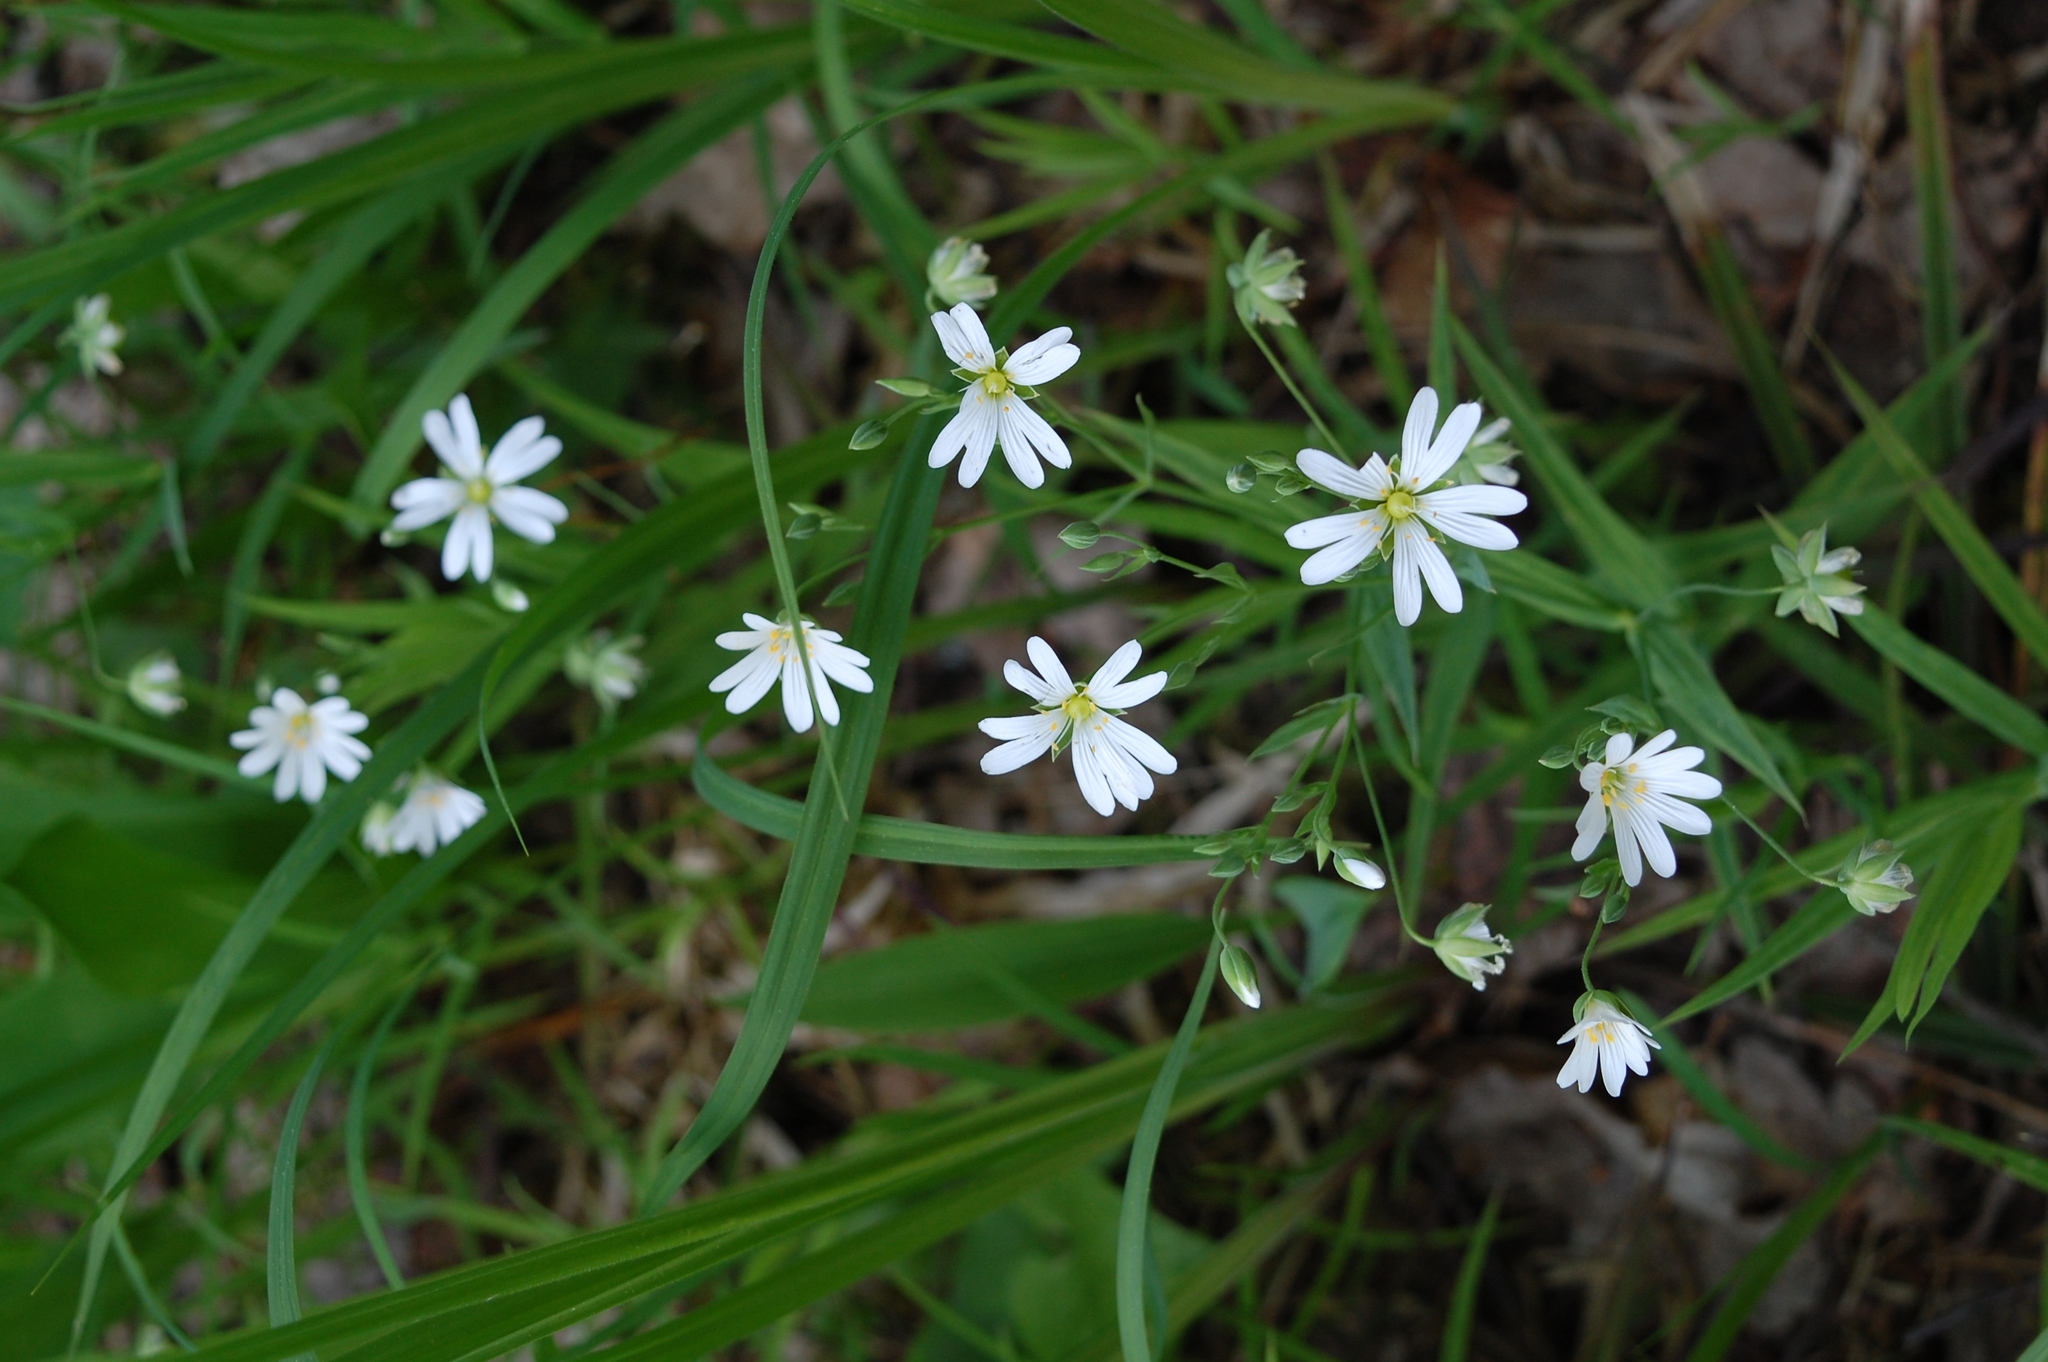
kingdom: Plantae
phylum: Tracheophyta
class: Magnoliopsida
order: Caryophyllales
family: Caryophyllaceae
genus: Rabelera
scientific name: Rabelera holostea
